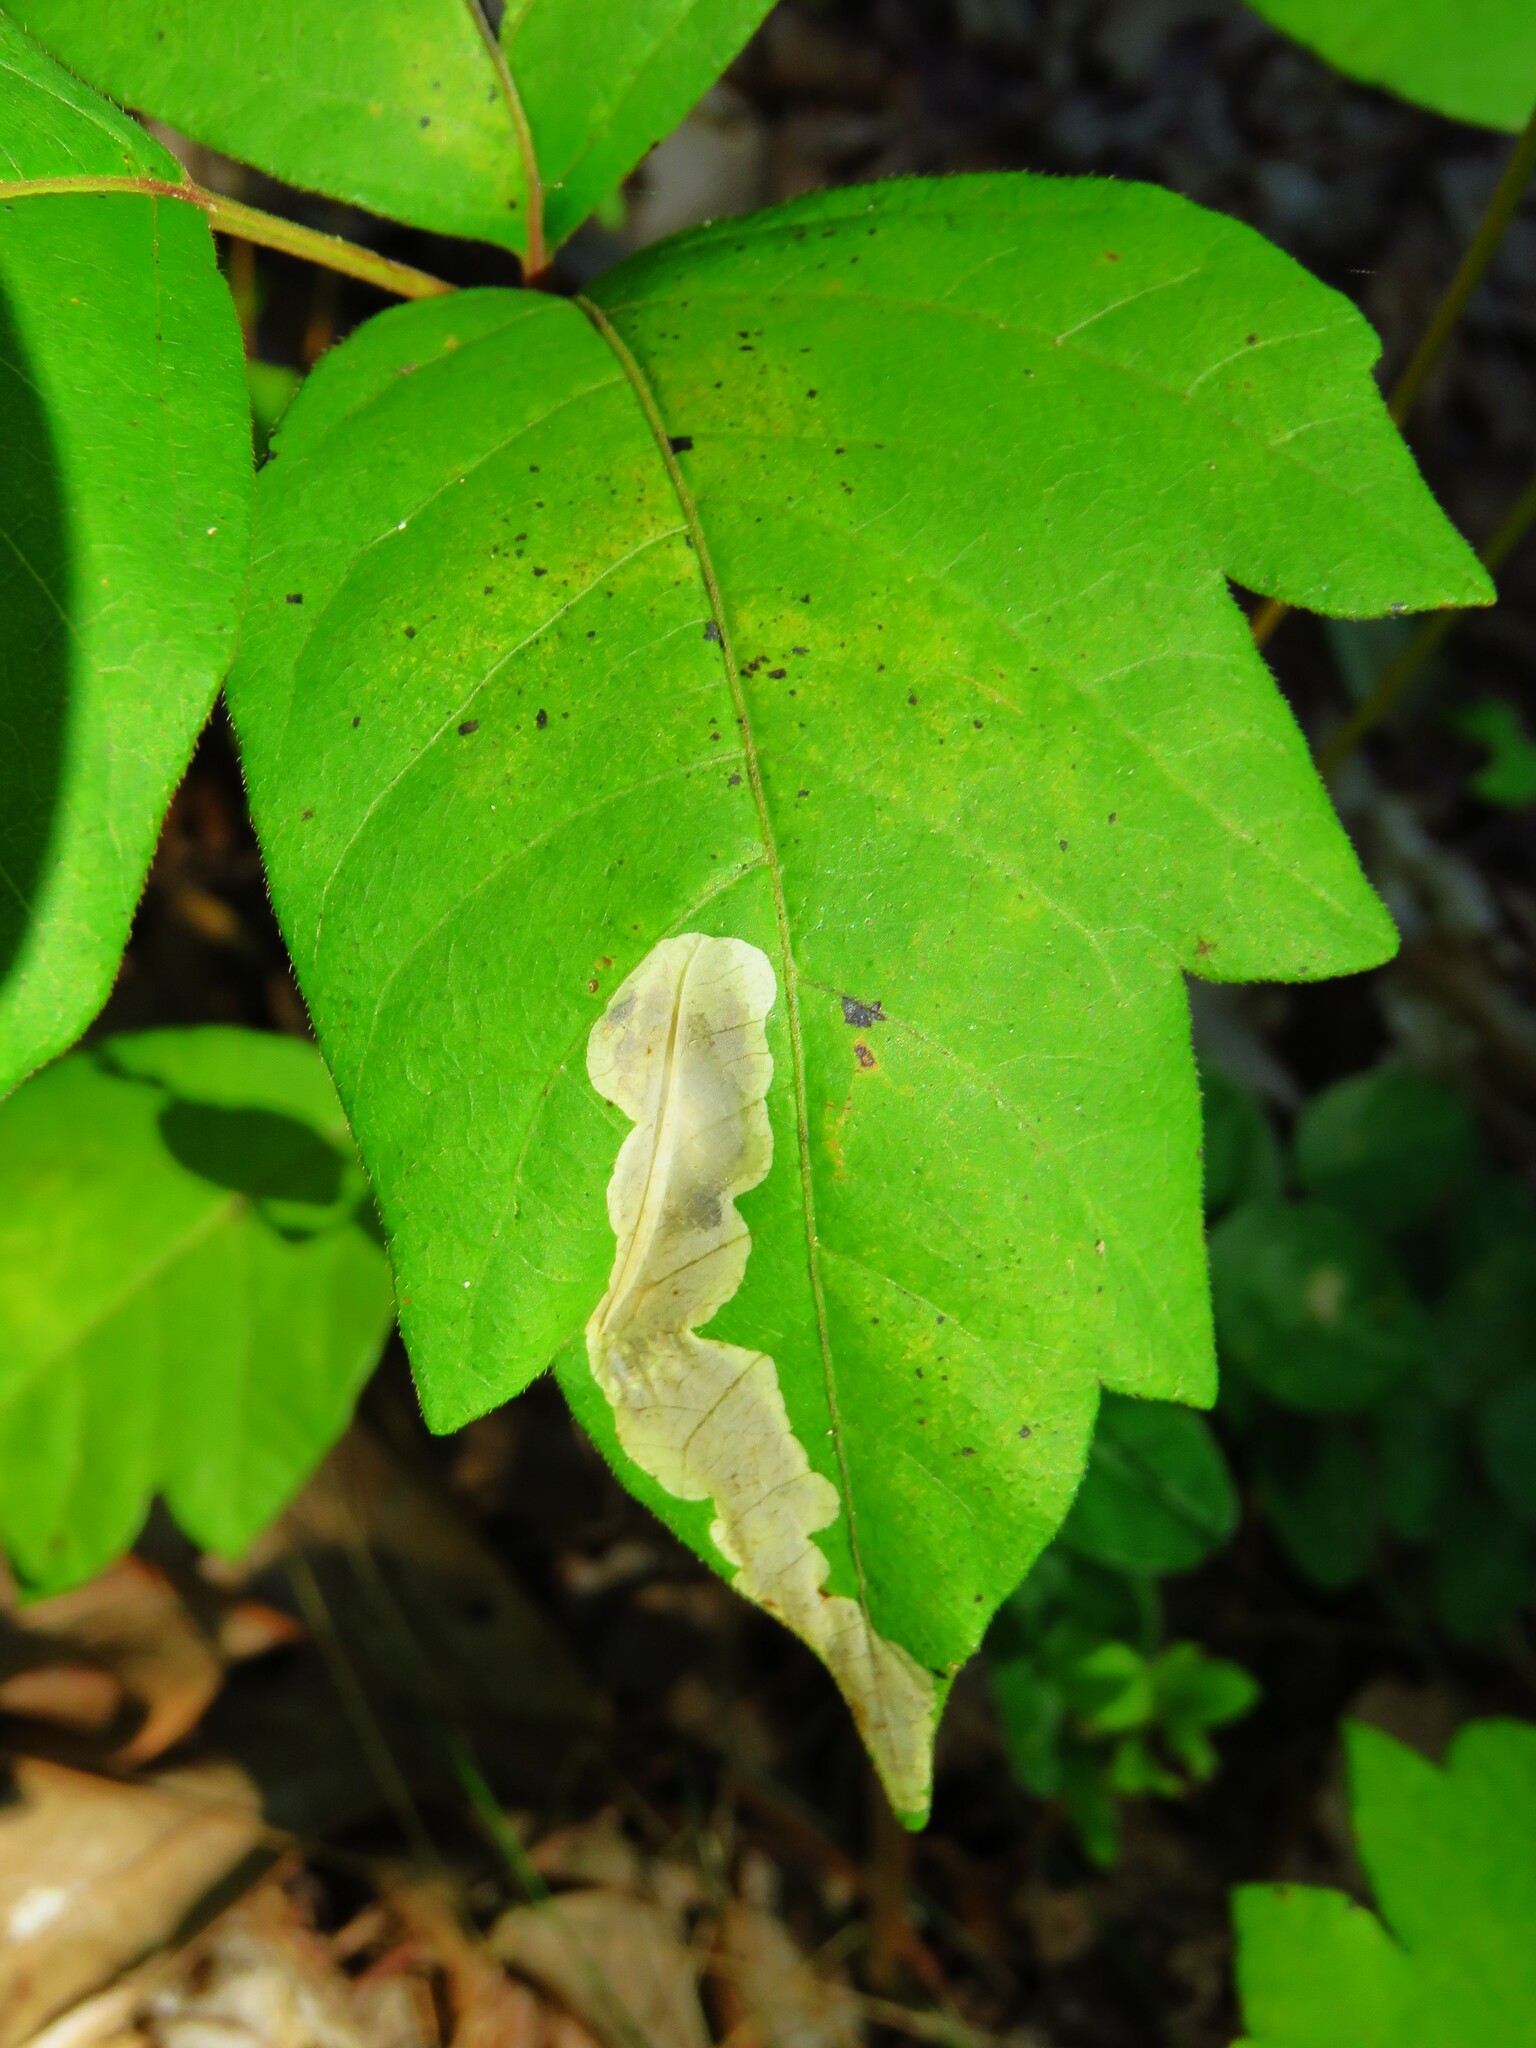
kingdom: Animalia
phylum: Arthropoda
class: Insecta
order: Lepidoptera
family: Gracillariidae
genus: Cameraria
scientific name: Cameraria guttifinitella
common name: Poison ivy leaf-miner moth
